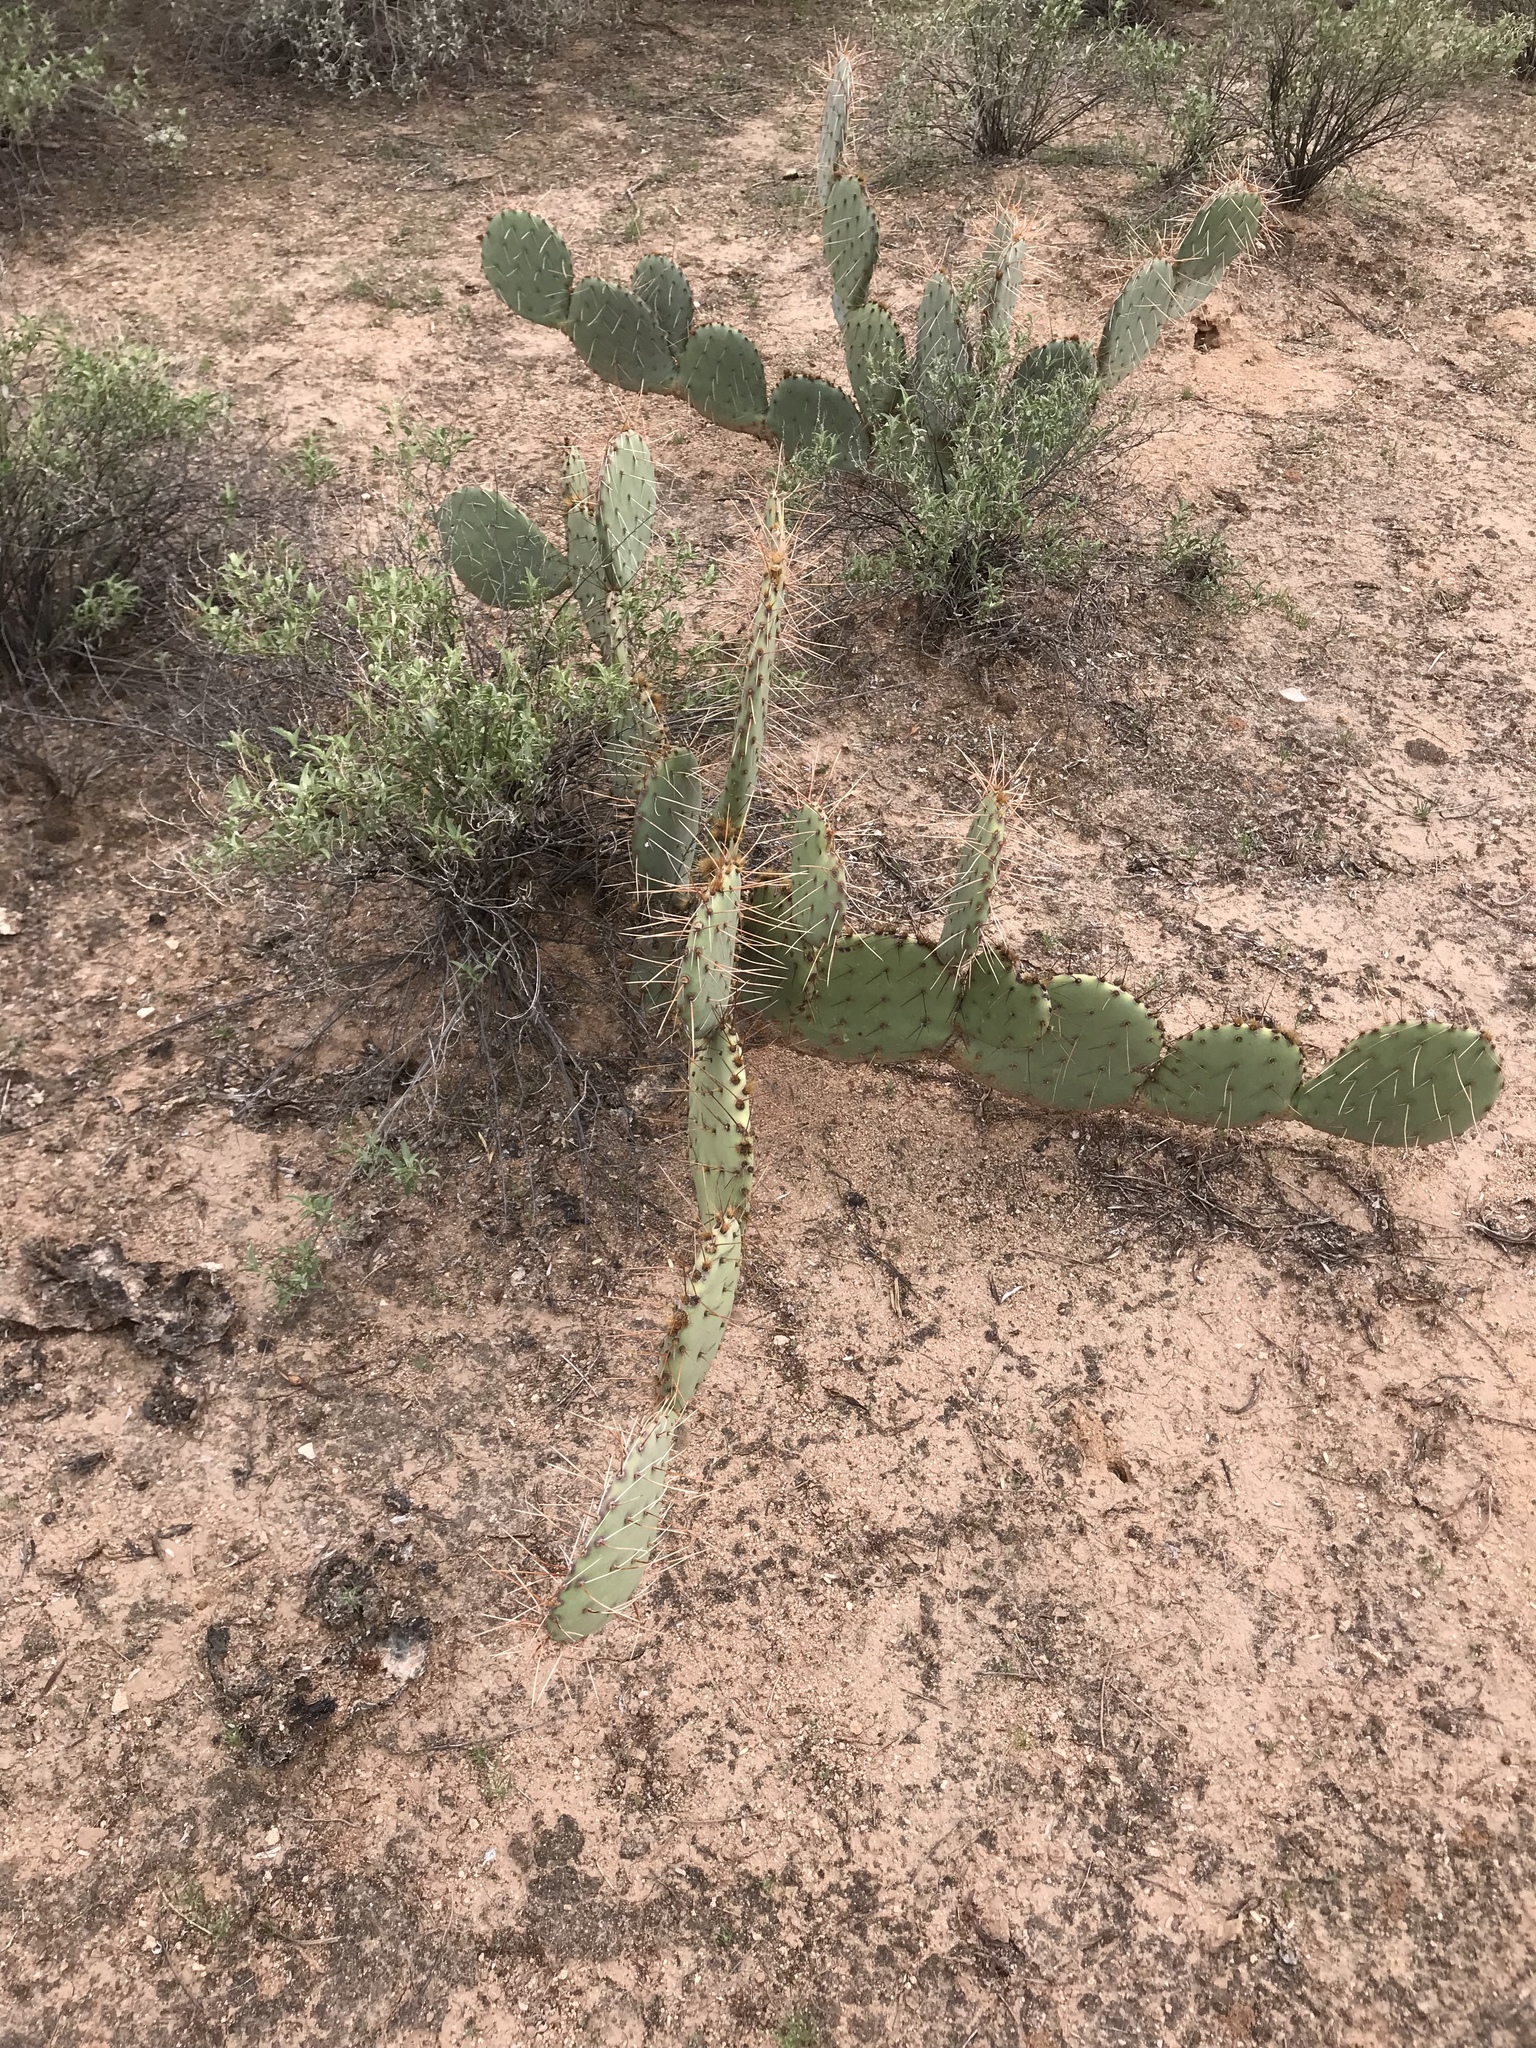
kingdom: Plantae
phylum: Tracheophyta
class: Magnoliopsida
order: Caryophyllales
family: Cactaceae
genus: Opuntia
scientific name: Opuntia phaeacantha
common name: New mexico prickly-pear
